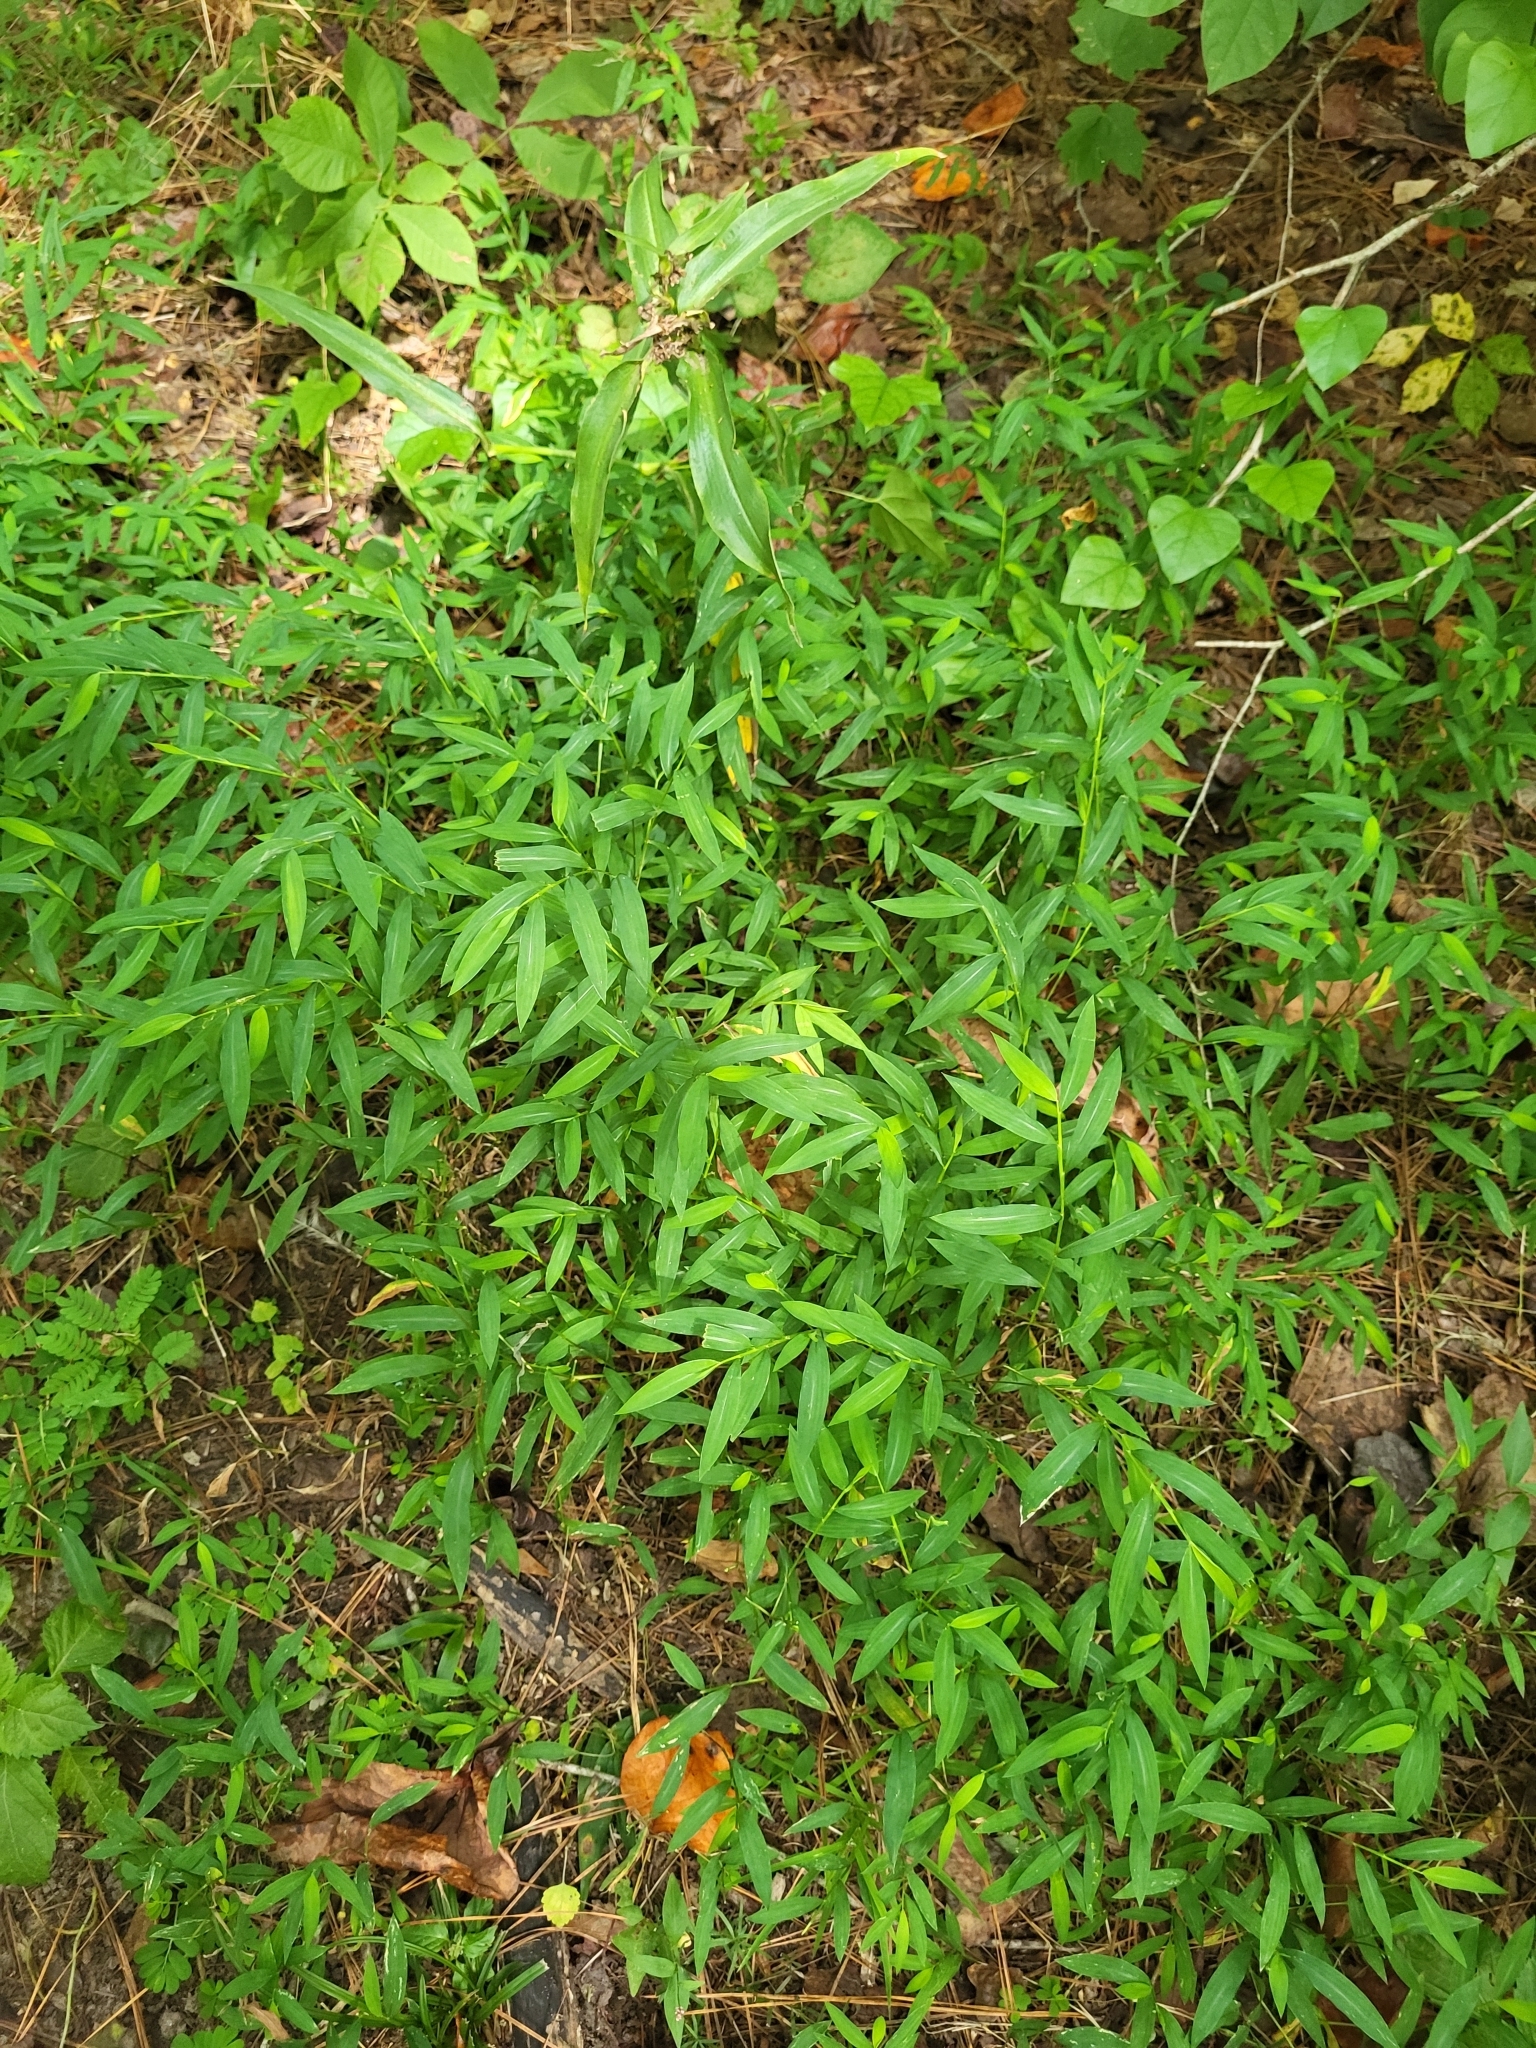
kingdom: Plantae
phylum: Tracheophyta
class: Liliopsida
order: Poales
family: Poaceae
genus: Microstegium
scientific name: Microstegium vimineum
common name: Japanese stiltgrass
